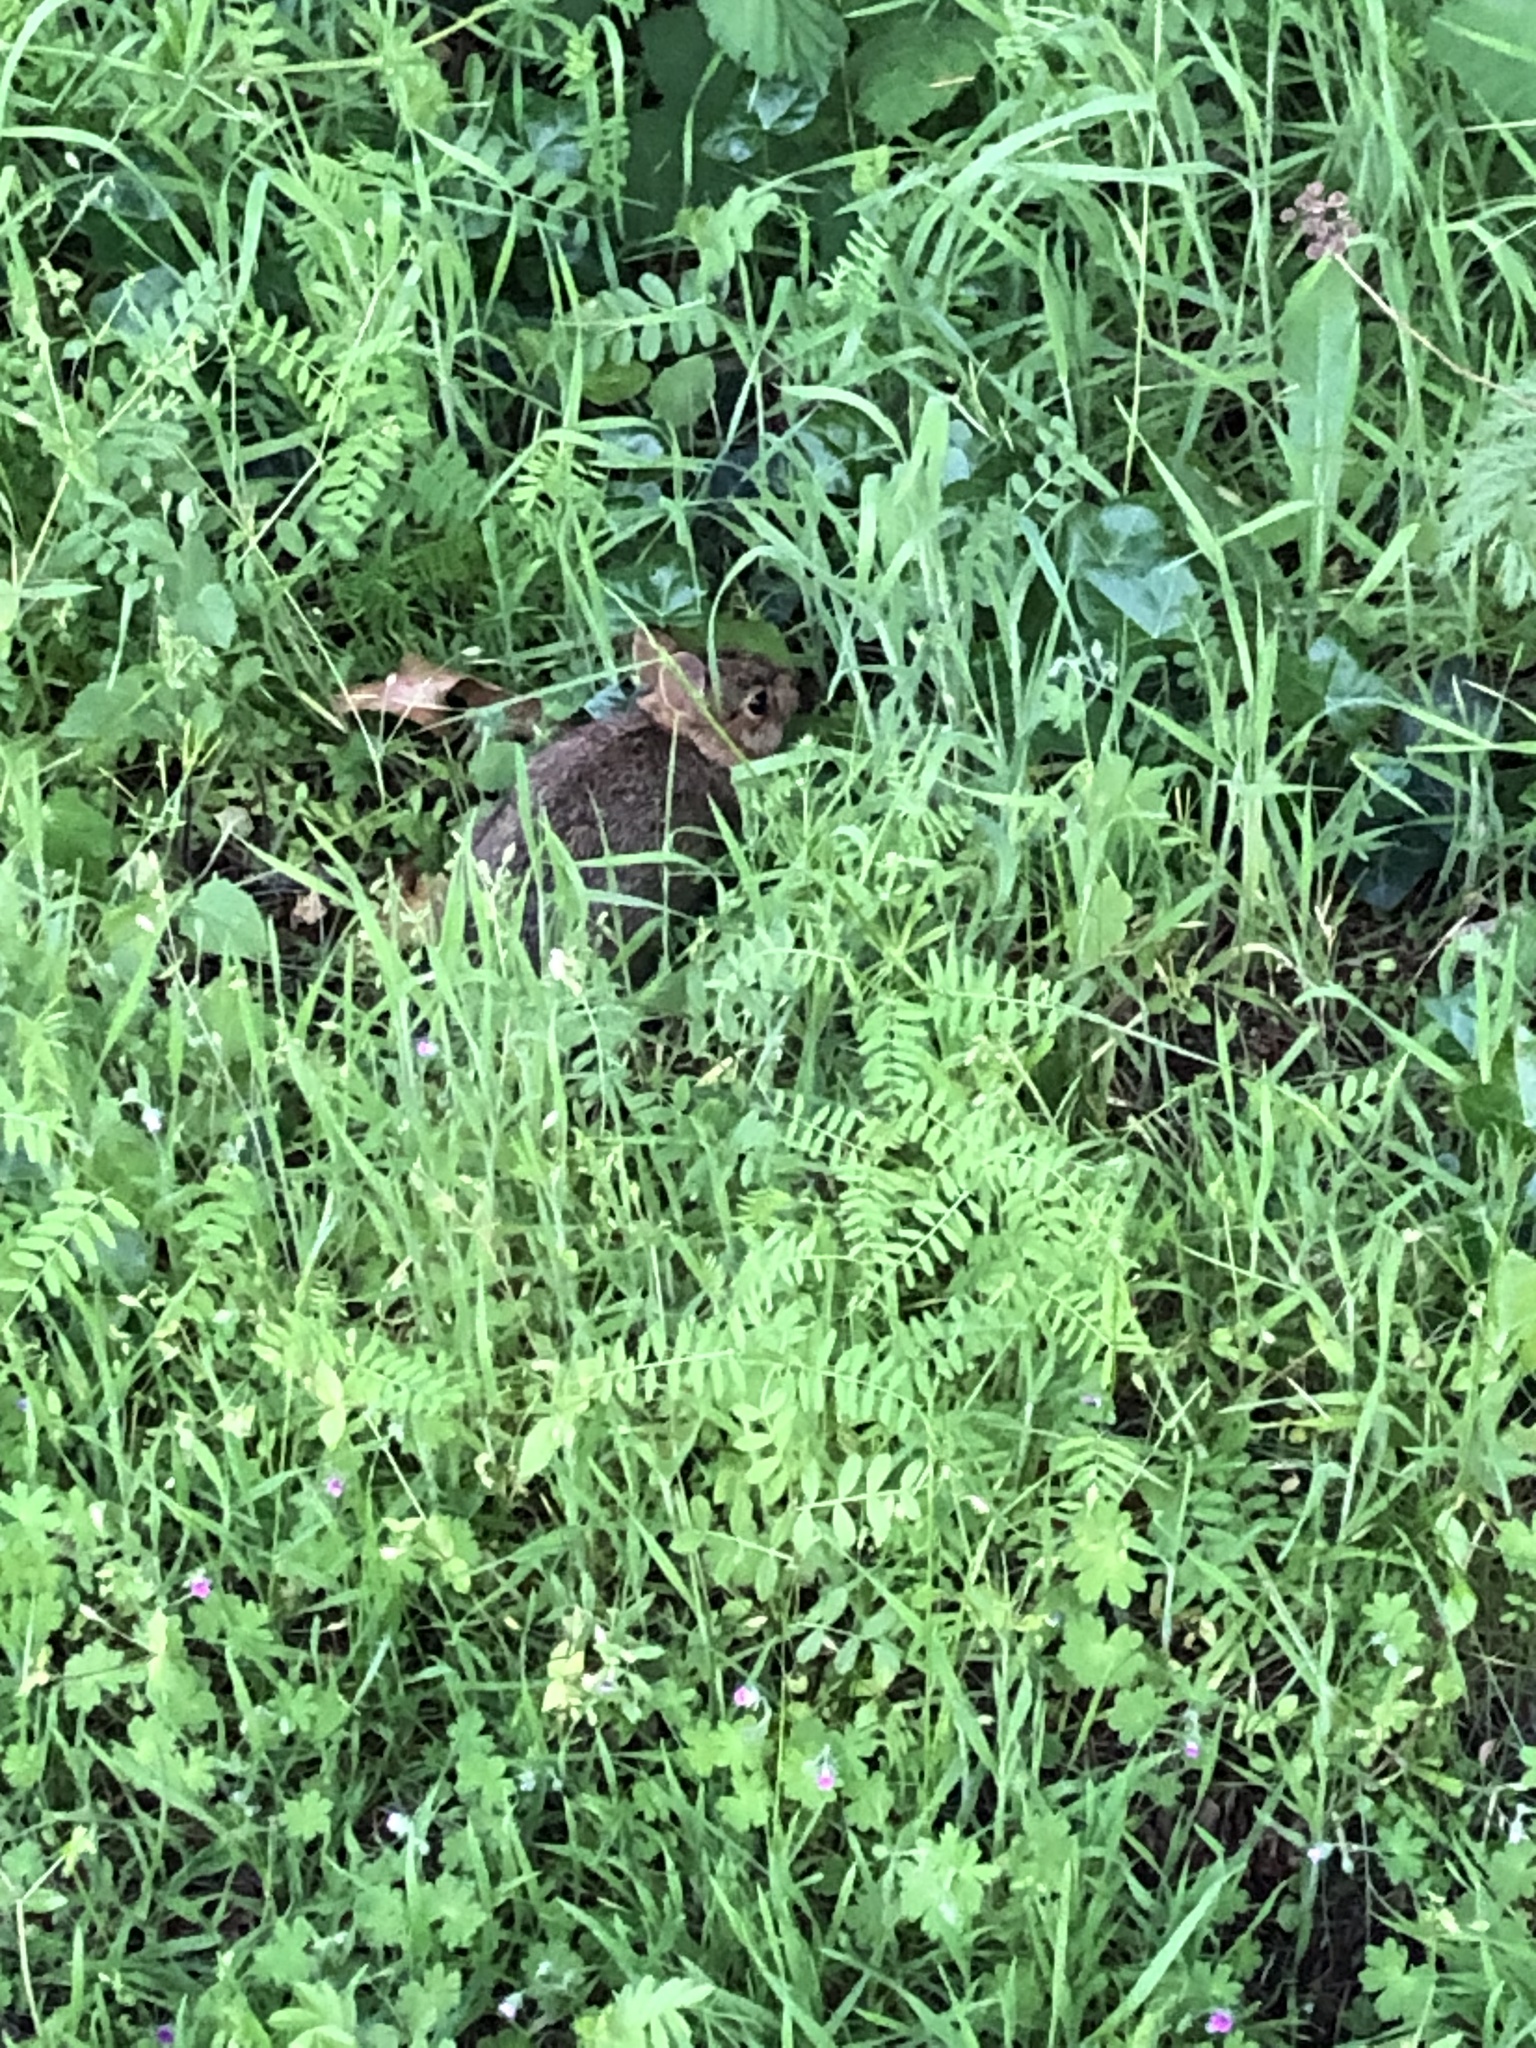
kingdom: Animalia
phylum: Chordata
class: Mammalia
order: Lagomorpha
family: Leporidae
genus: Sylvilagus
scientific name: Sylvilagus floridanus
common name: Eastern cottontail
